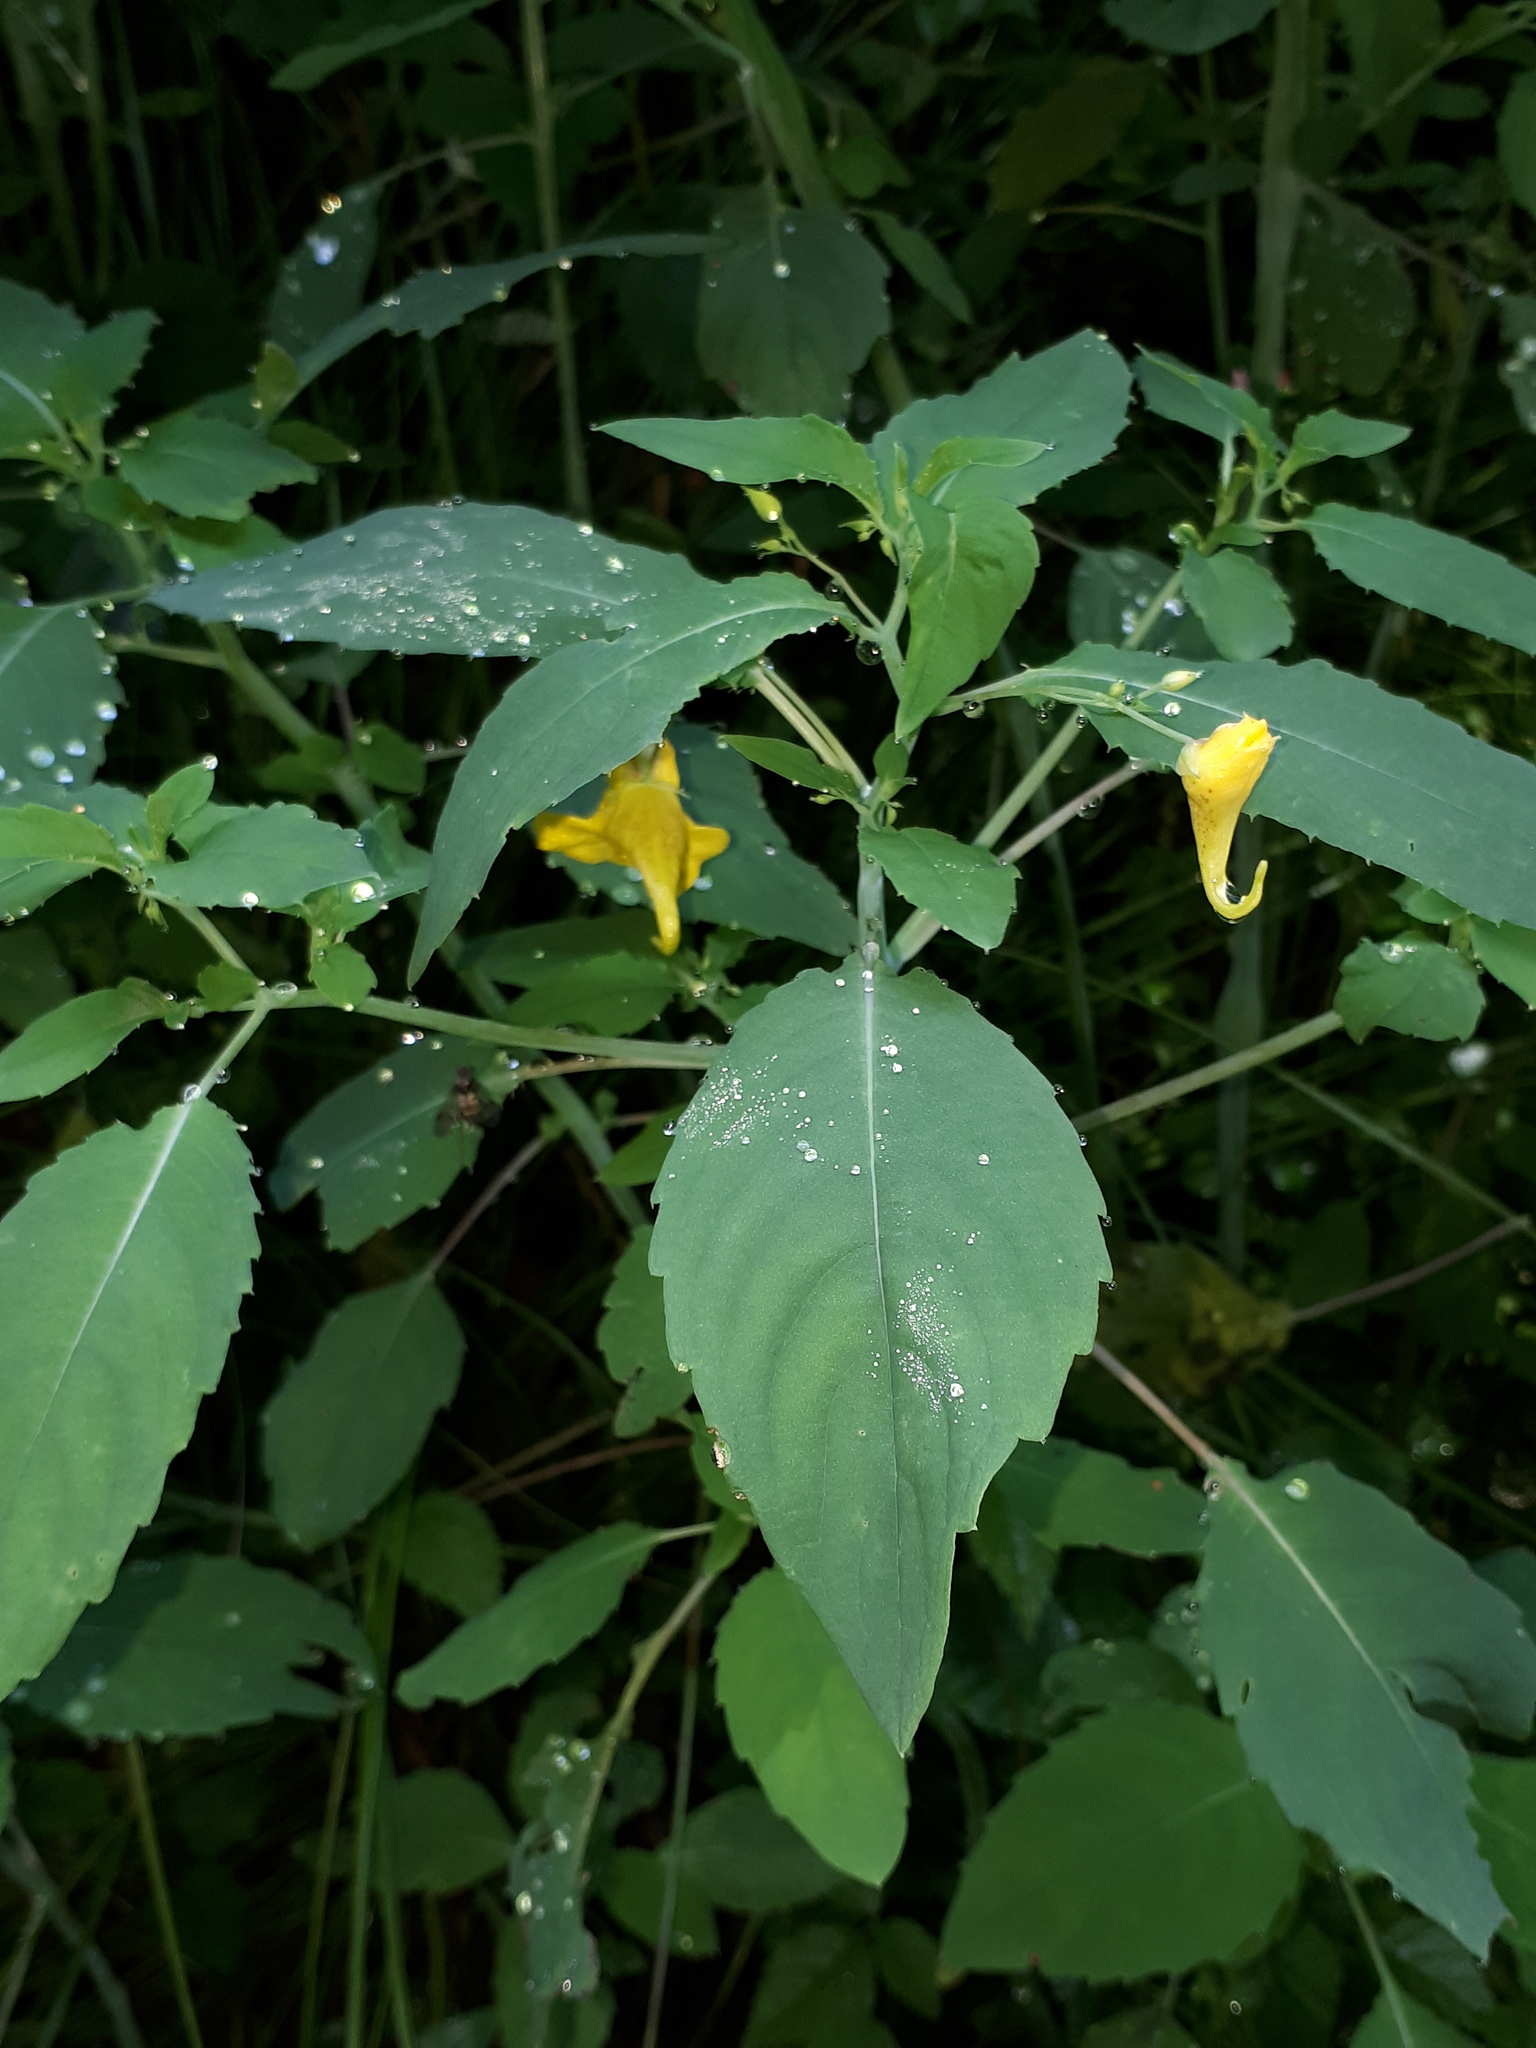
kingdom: Plantae
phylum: Tracheophyta
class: Magnoliopsida
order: Ericales
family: Balsaminaceae
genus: Impatiens
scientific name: Impatiens noli-tangere
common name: Touch-me-not balsam
